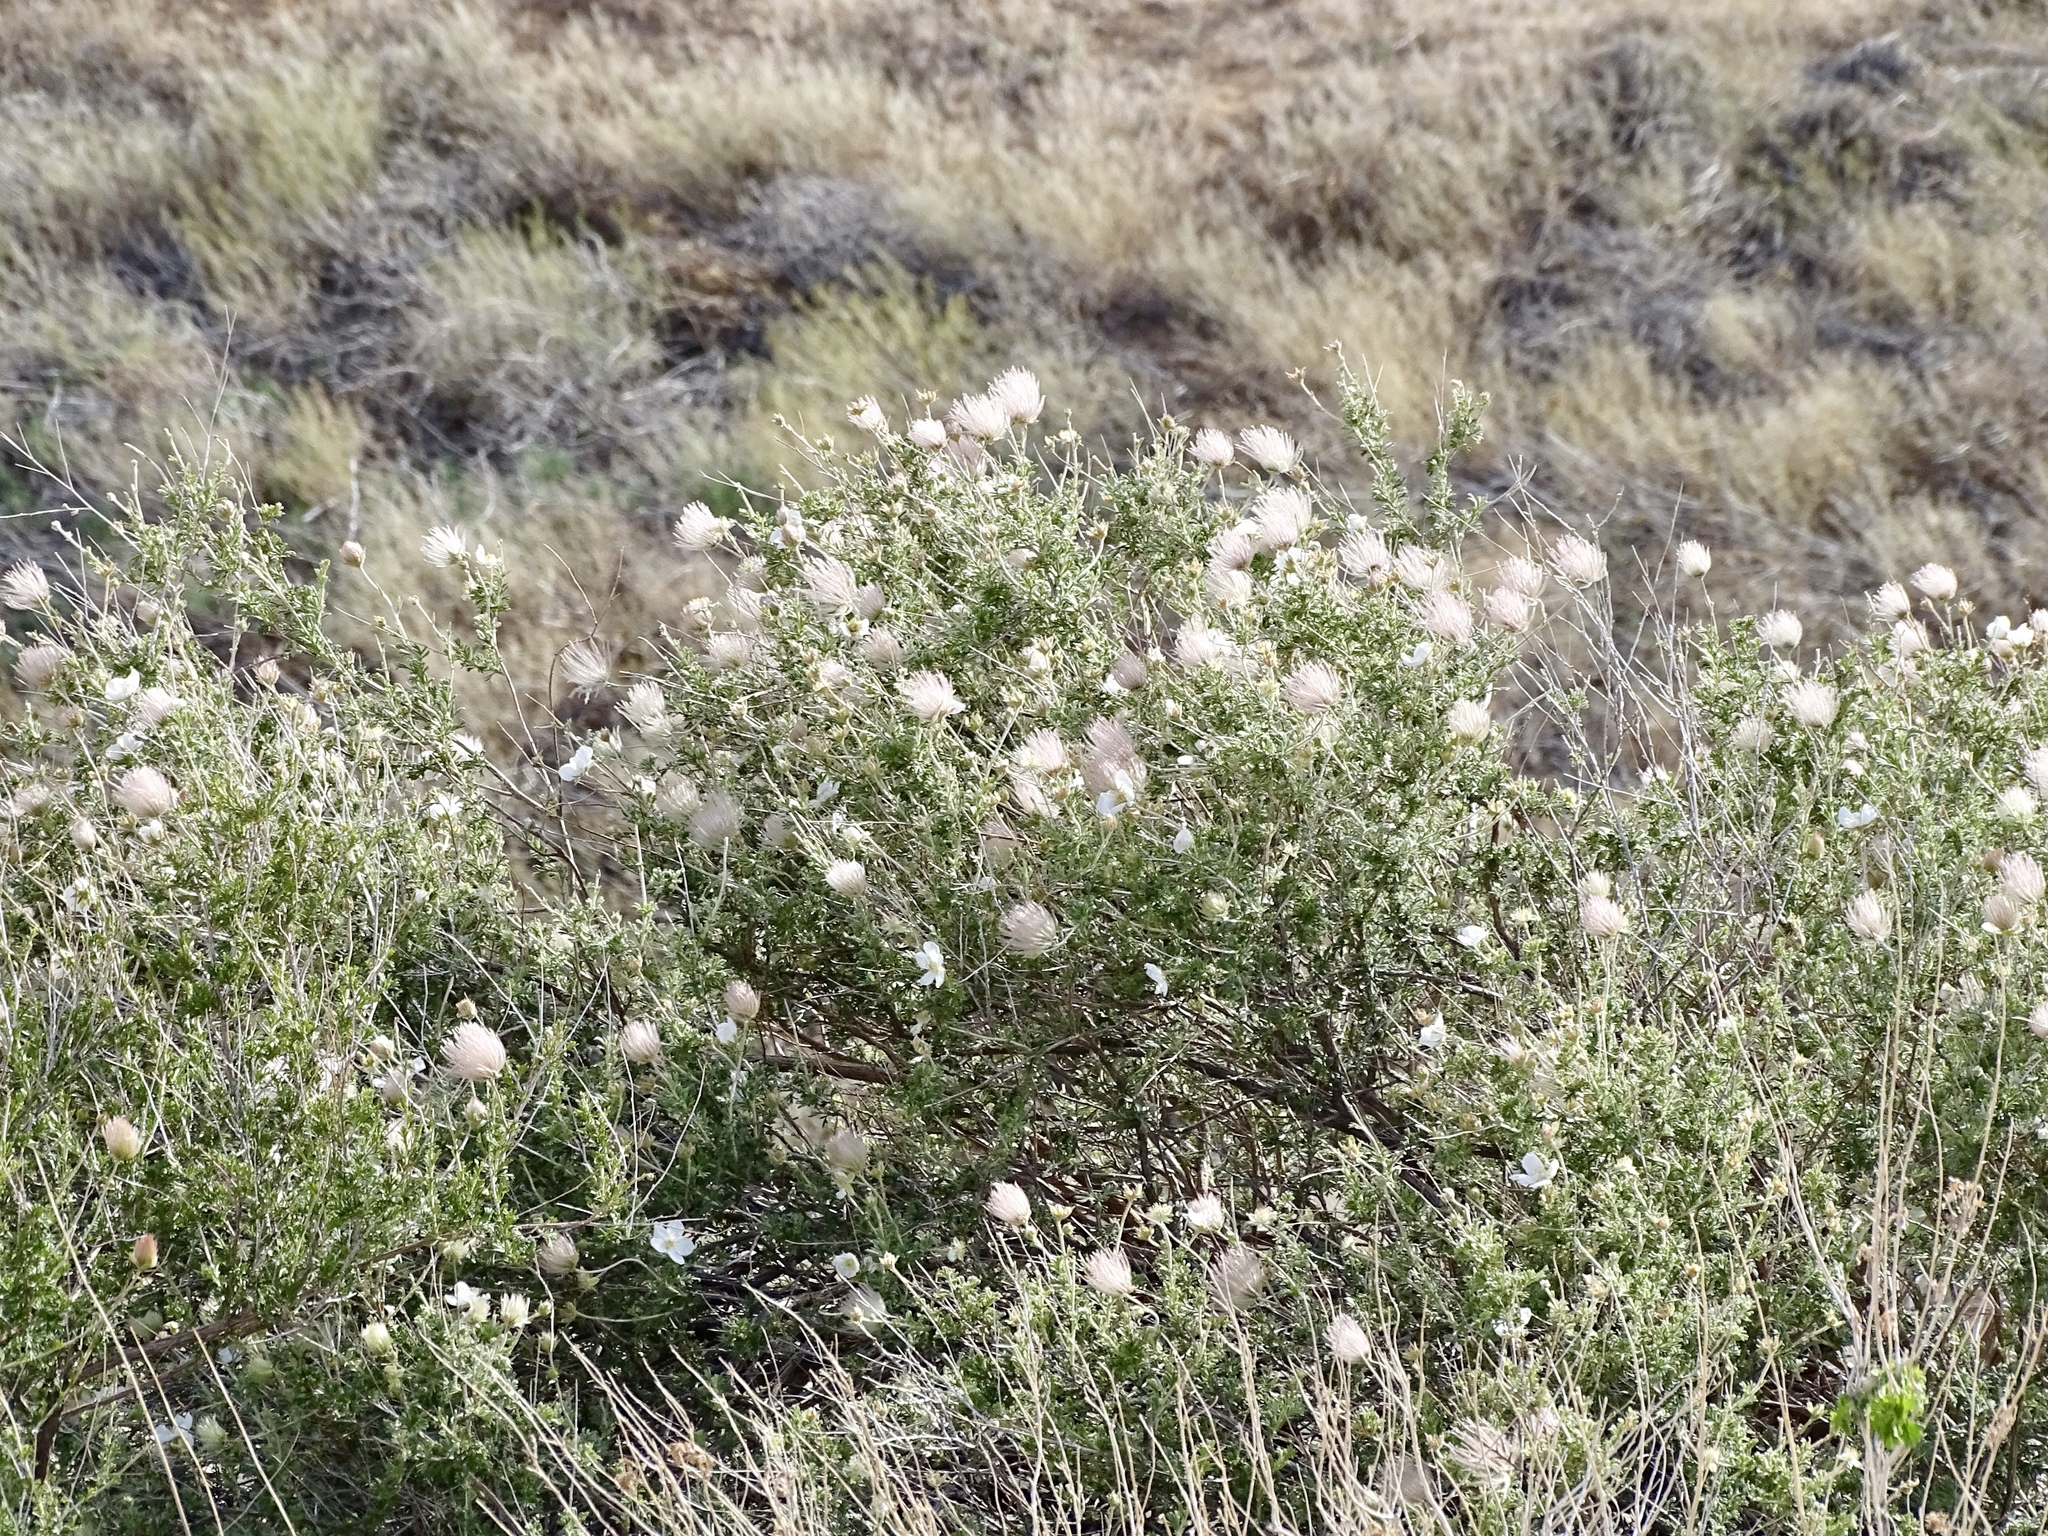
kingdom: Plantae
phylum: Tracheophyta
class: Magnoliopsida
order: Rosales
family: Rosaceae
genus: Fallugia
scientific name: Fallugia paradoxa
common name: Apache-plume
